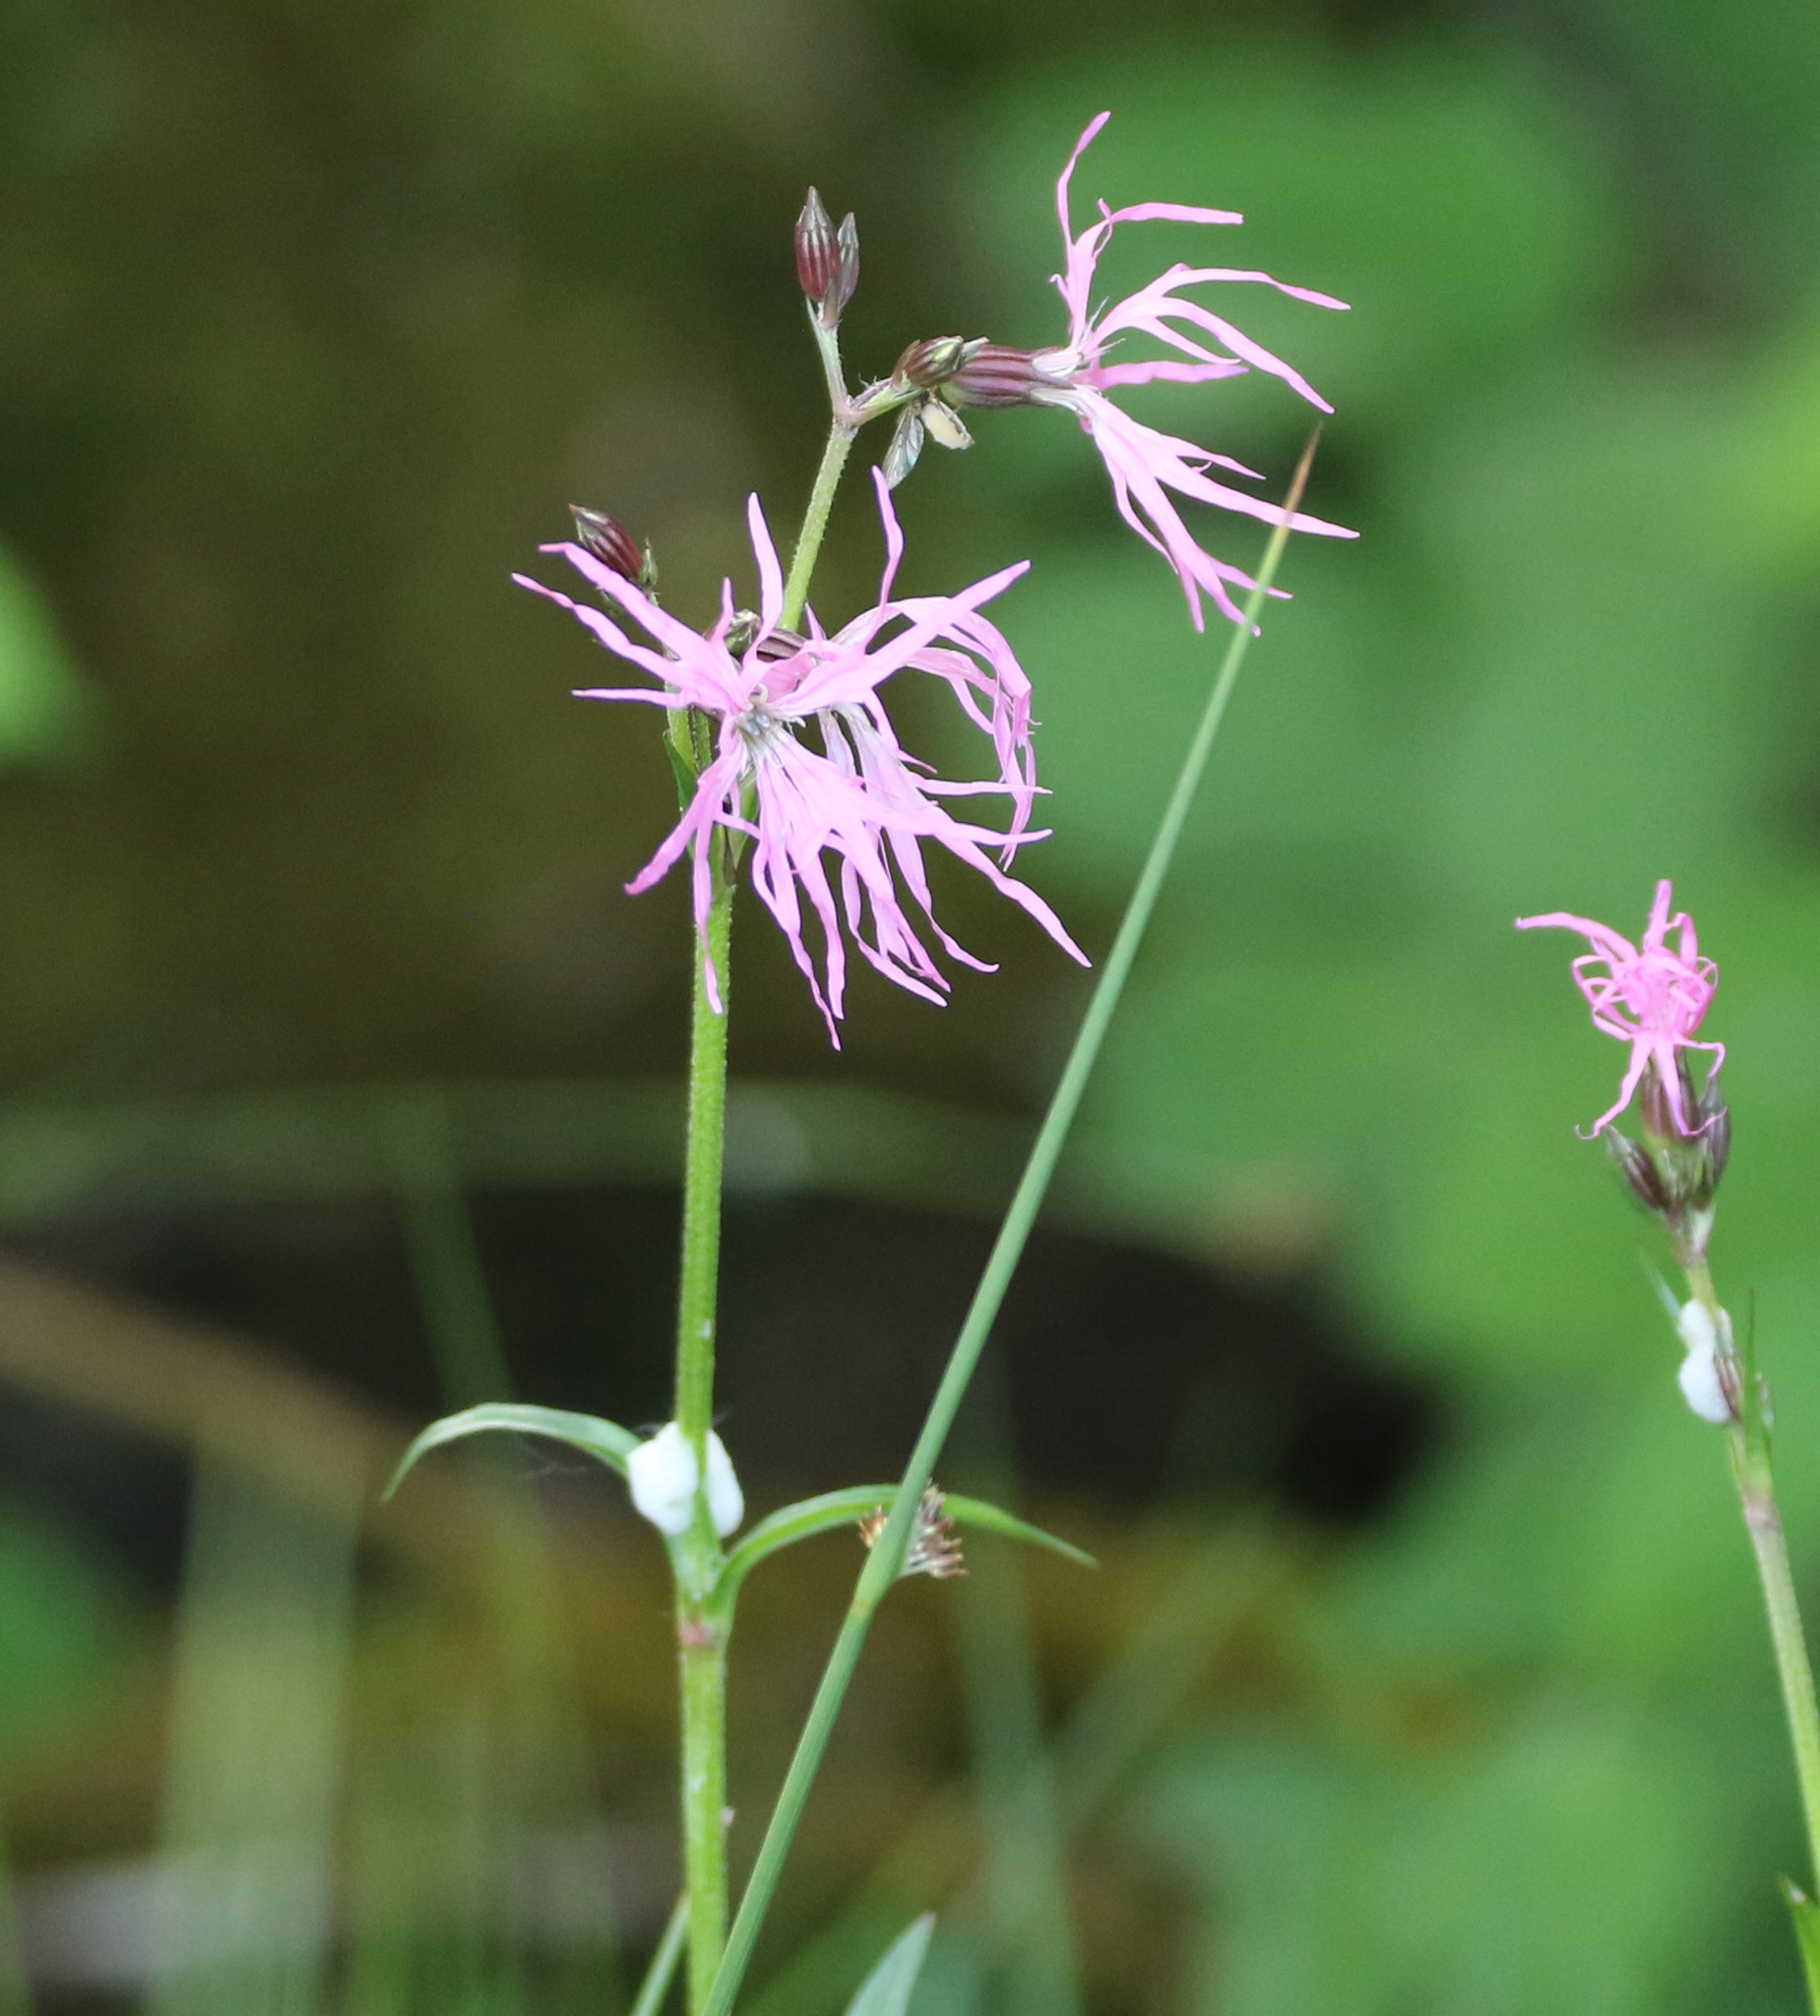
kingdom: Plantae
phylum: Tracheophyta
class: Magnoliopsida
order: Caryophyllales
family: Caryophyllaceae
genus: Silene
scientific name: Silene flos-cuculi
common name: Ragged-robin
